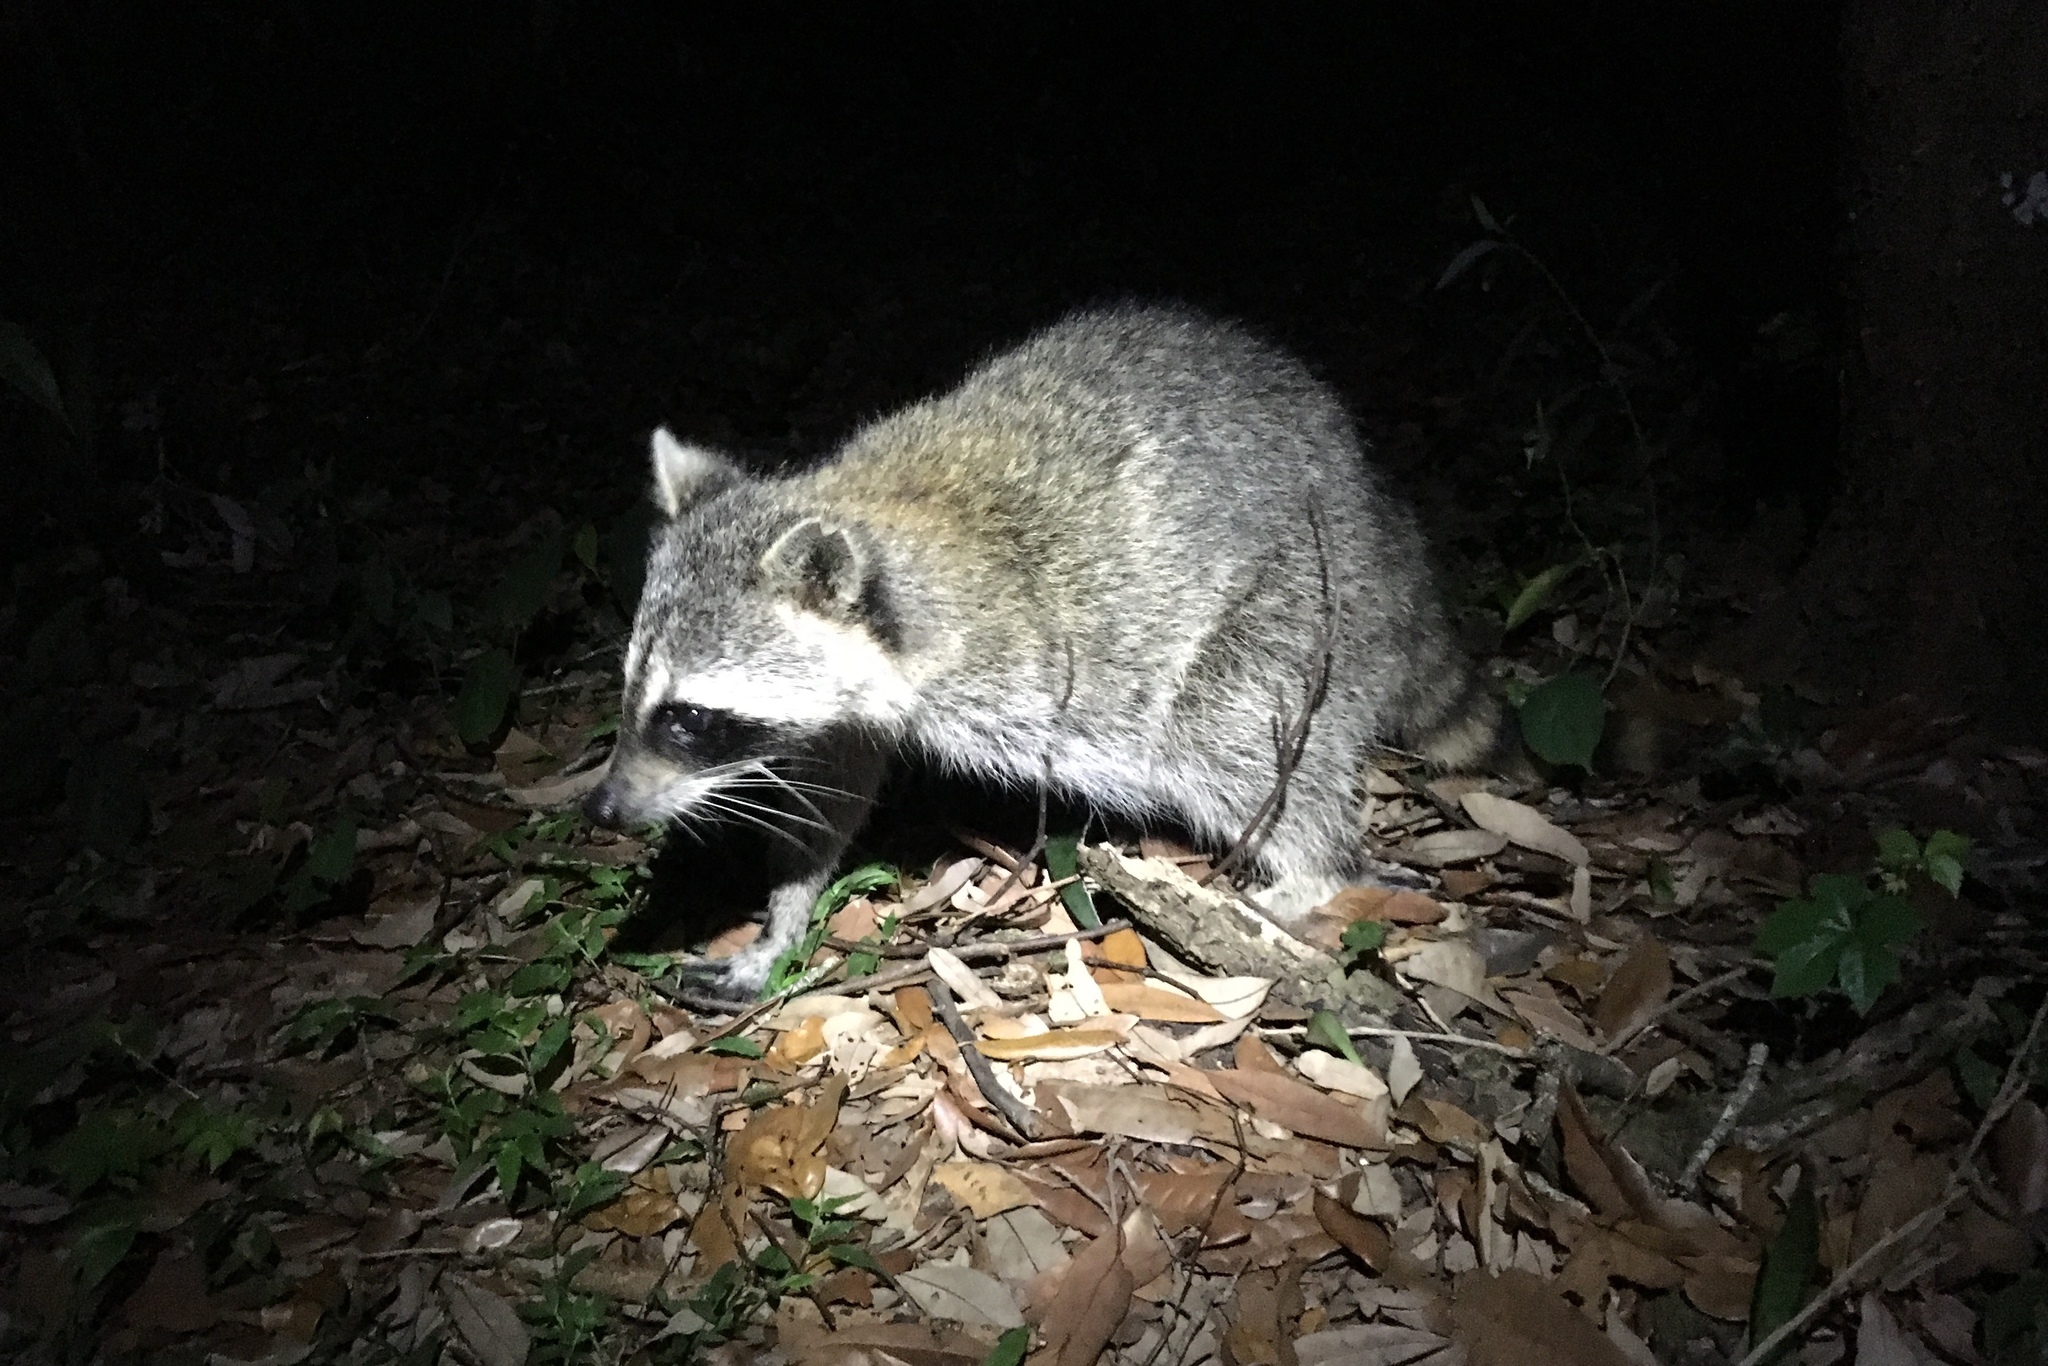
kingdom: Animalia
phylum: Chordata
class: Mammalia
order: Carnivora
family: Procyonidae
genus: Procyon
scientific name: Procyon lotor
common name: Raccoon
